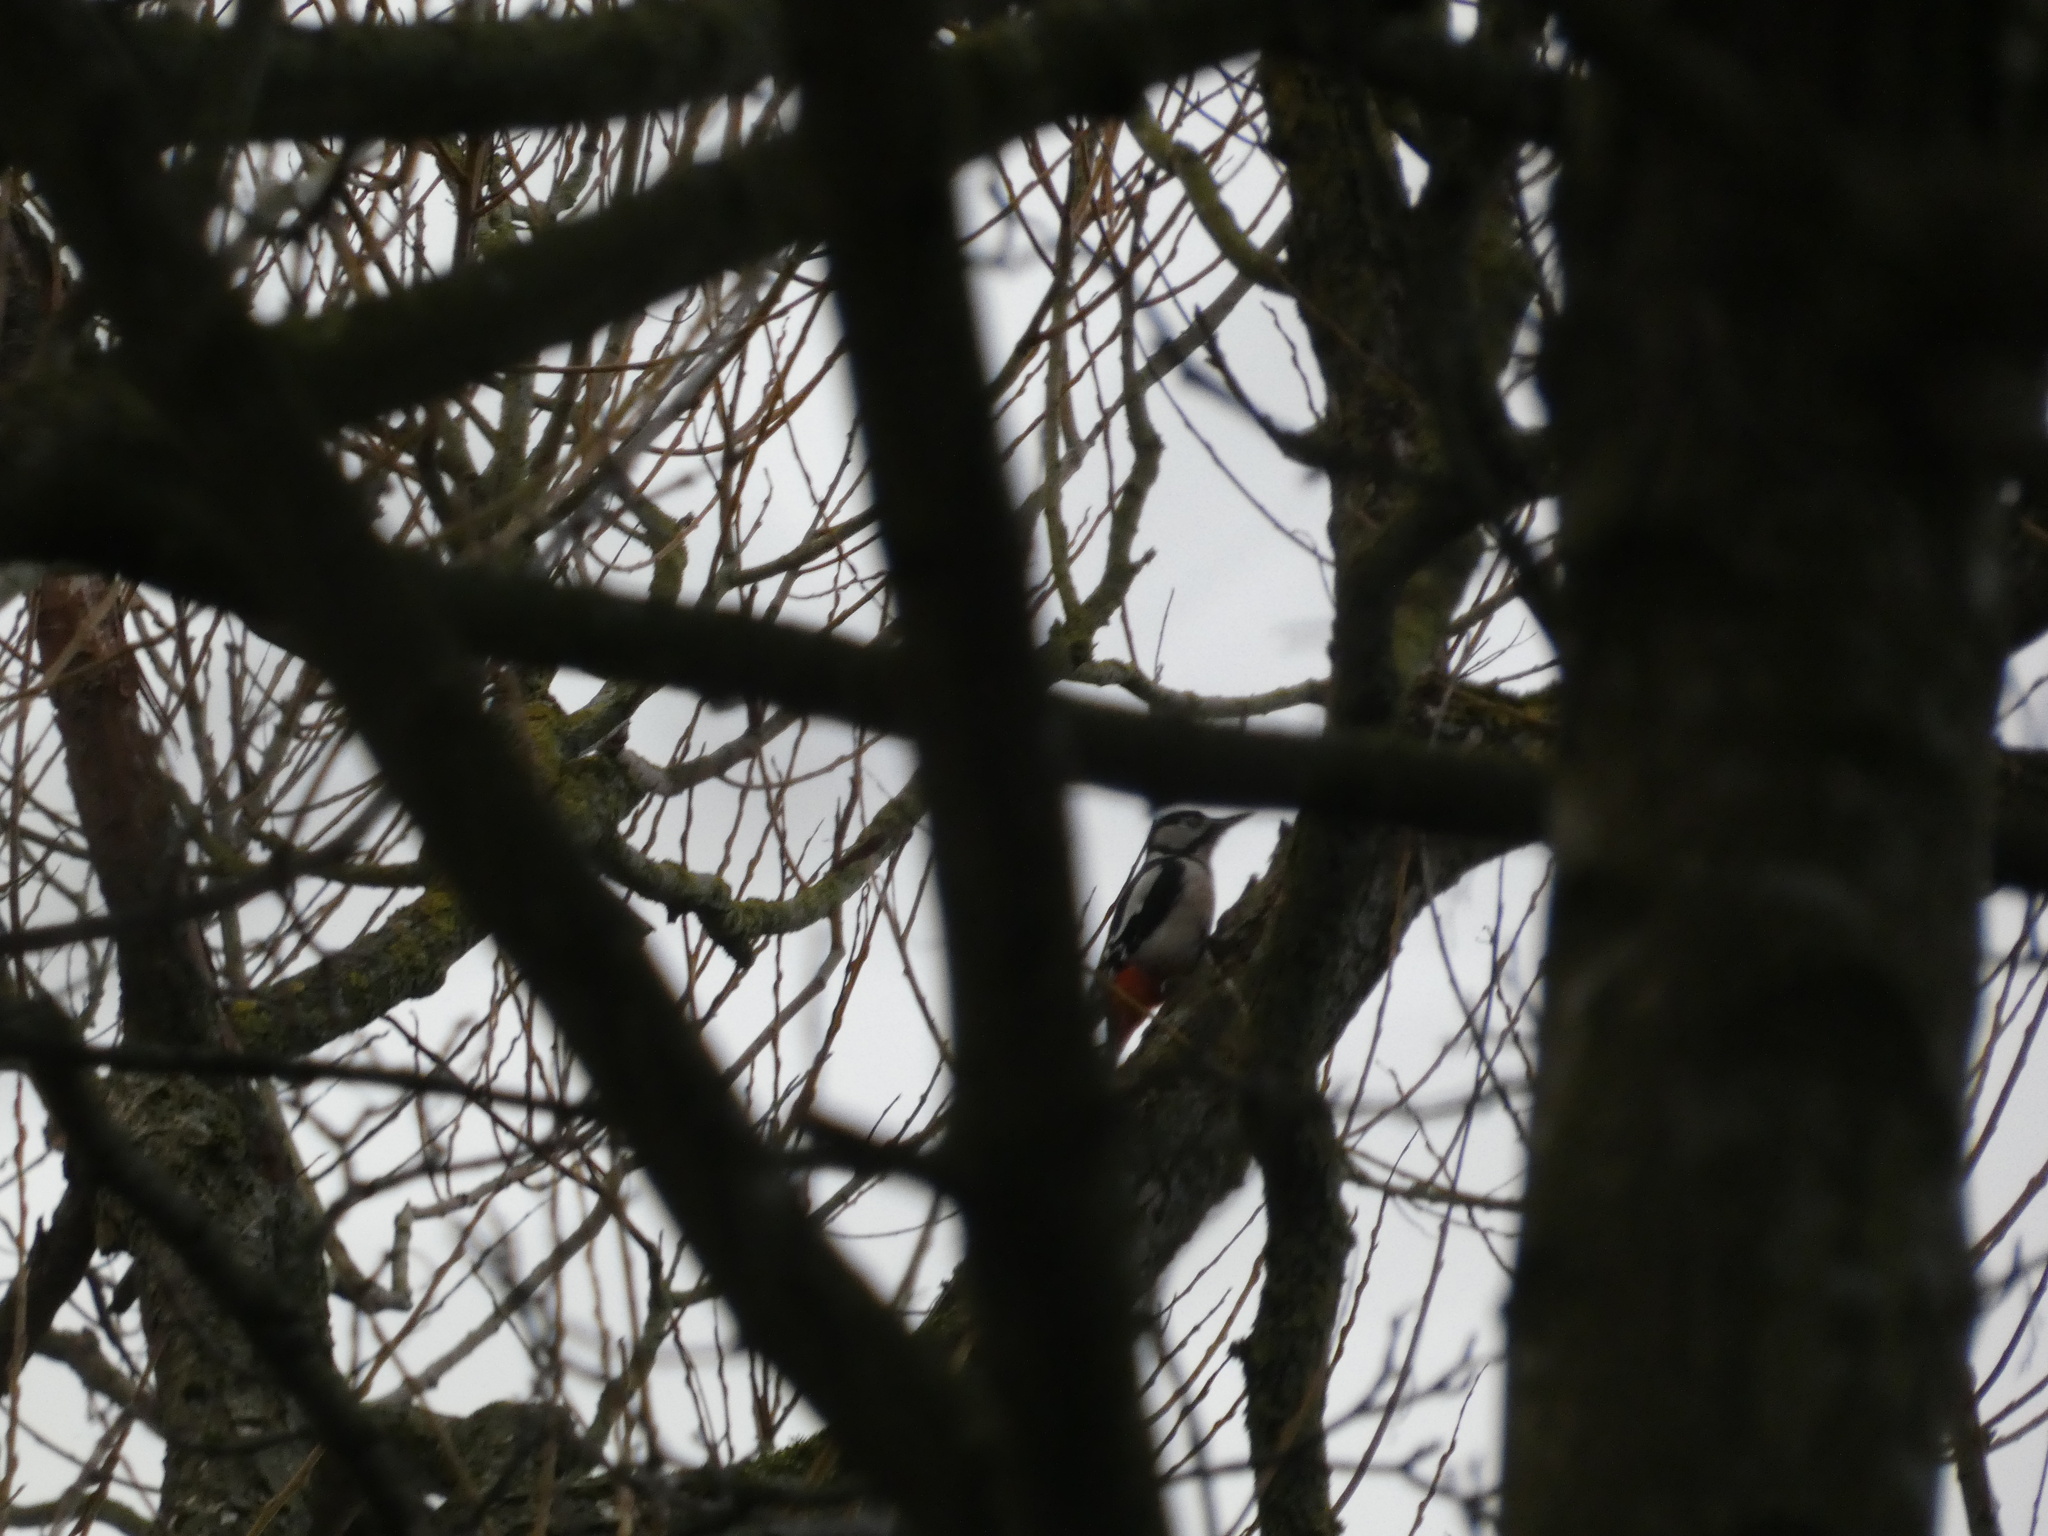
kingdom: Animalia
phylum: Chordata
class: Aves
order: Piciformes
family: Picidae
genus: Dendrocopos
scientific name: Dendrocopos major
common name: Great spotted woodpecker
